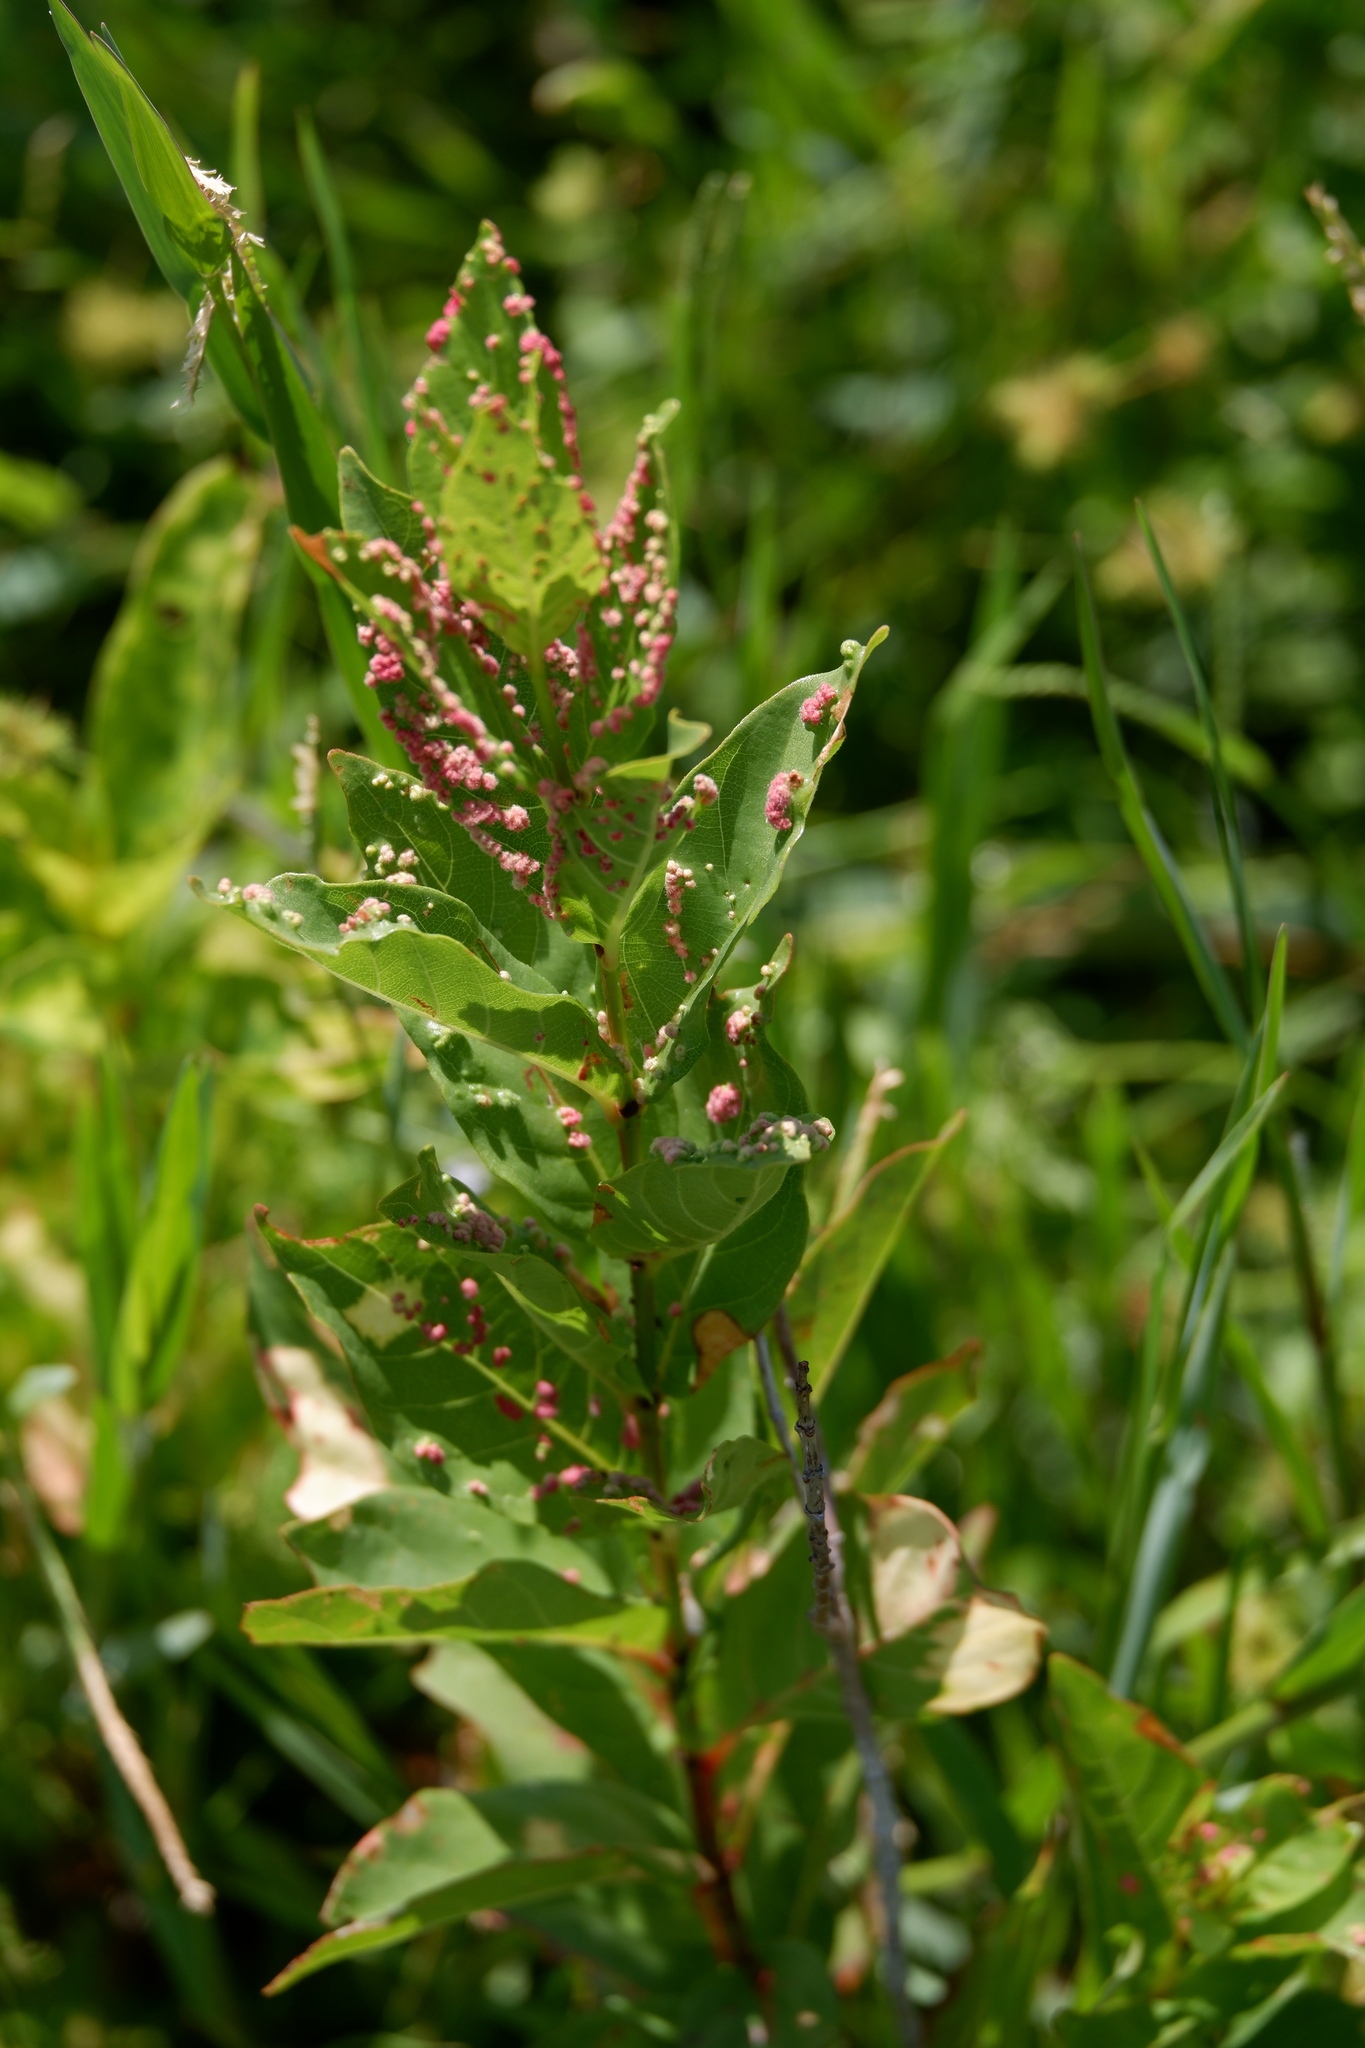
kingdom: Animalia
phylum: Arthropoda
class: Arachnida
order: Trombidiformes
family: Eriophyidae
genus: Aceria
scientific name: Aceria
